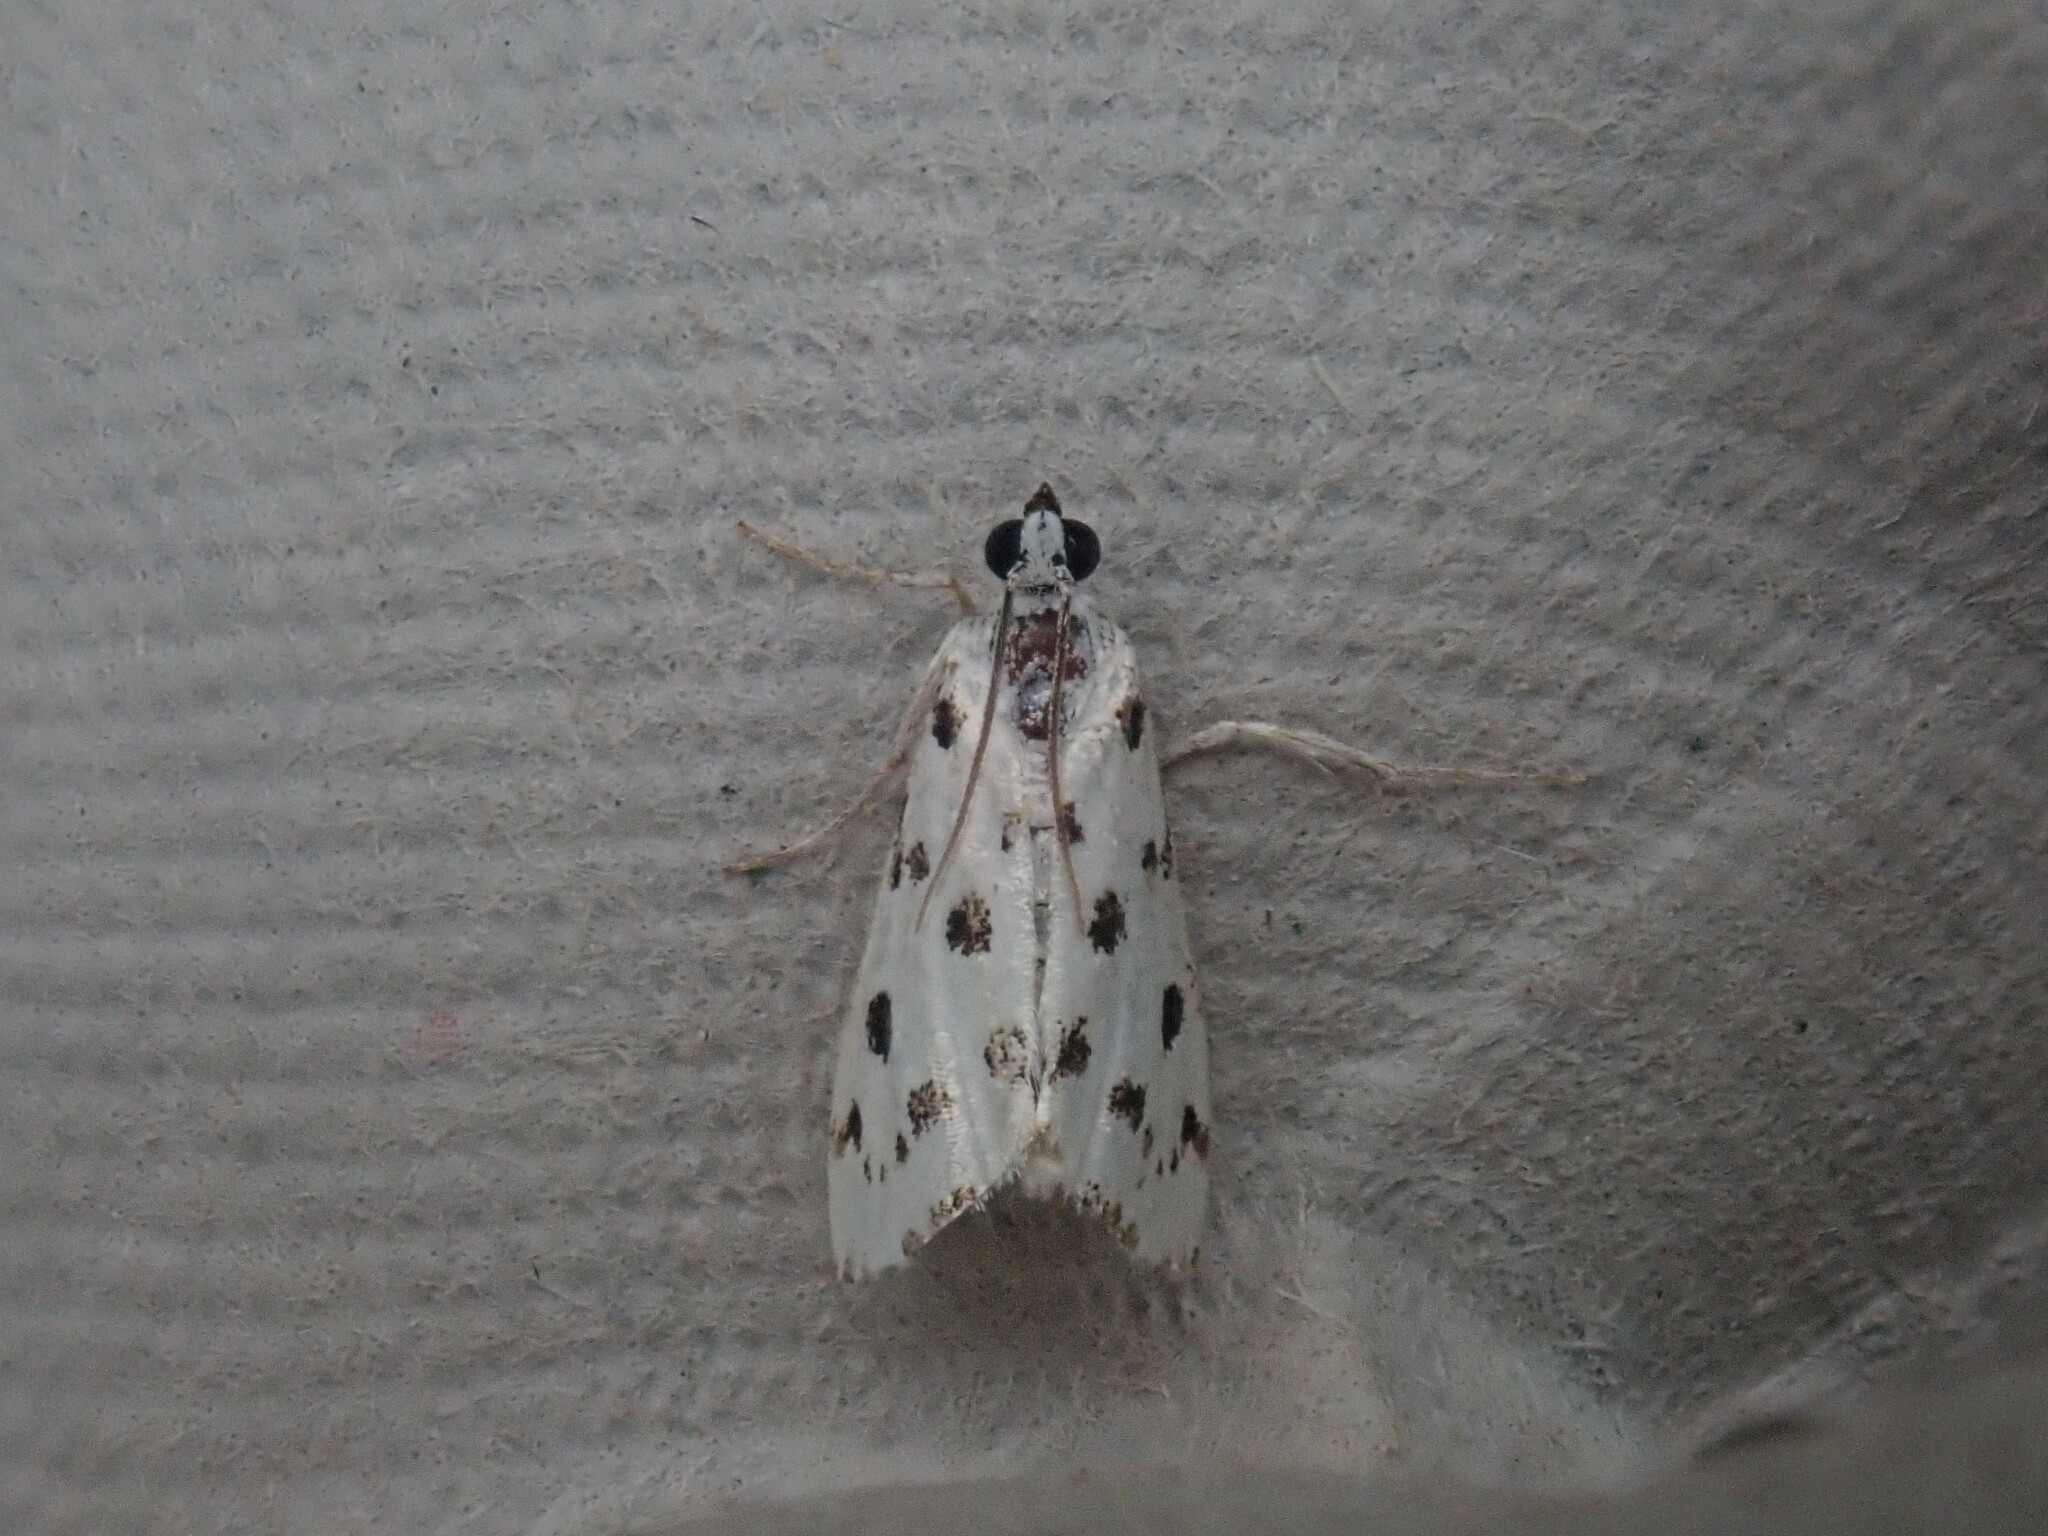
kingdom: Animalia
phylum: Arthropoda
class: Insecta
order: Lepidoptera
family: Crambidae
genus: Eustixia
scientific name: Eustixia pupula
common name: American cabbage pearl
